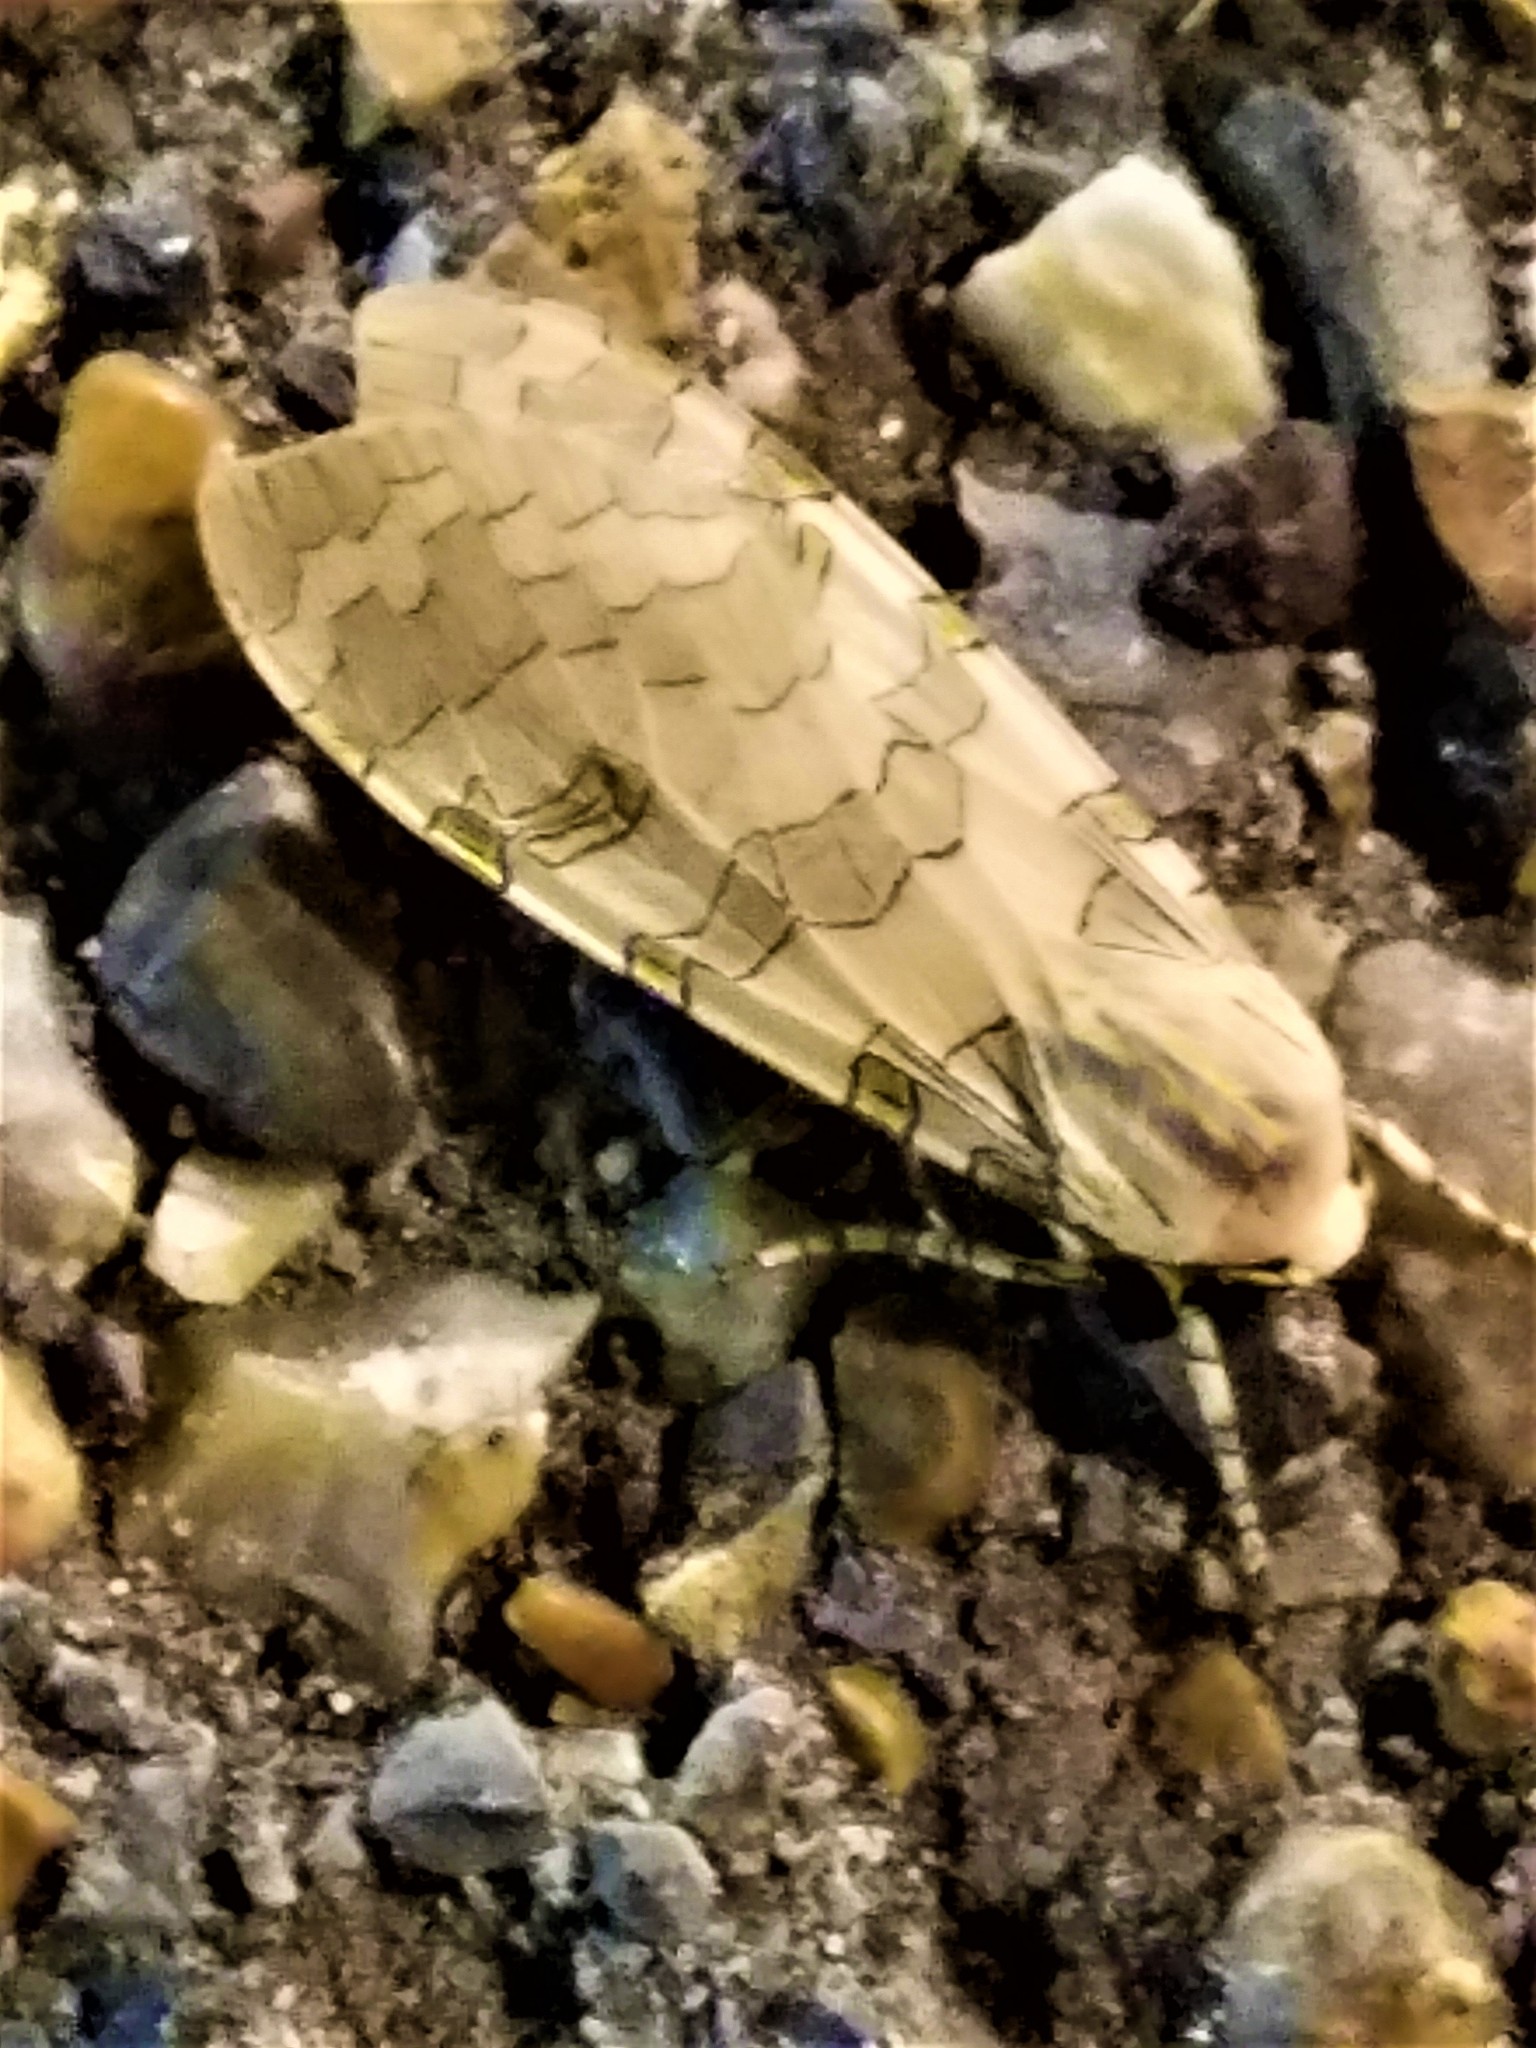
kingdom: Animalia
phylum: Arthropoda
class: Insecta
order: Lepidoptera
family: Erebidae
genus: Halysidota
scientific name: Halysidota schausi
